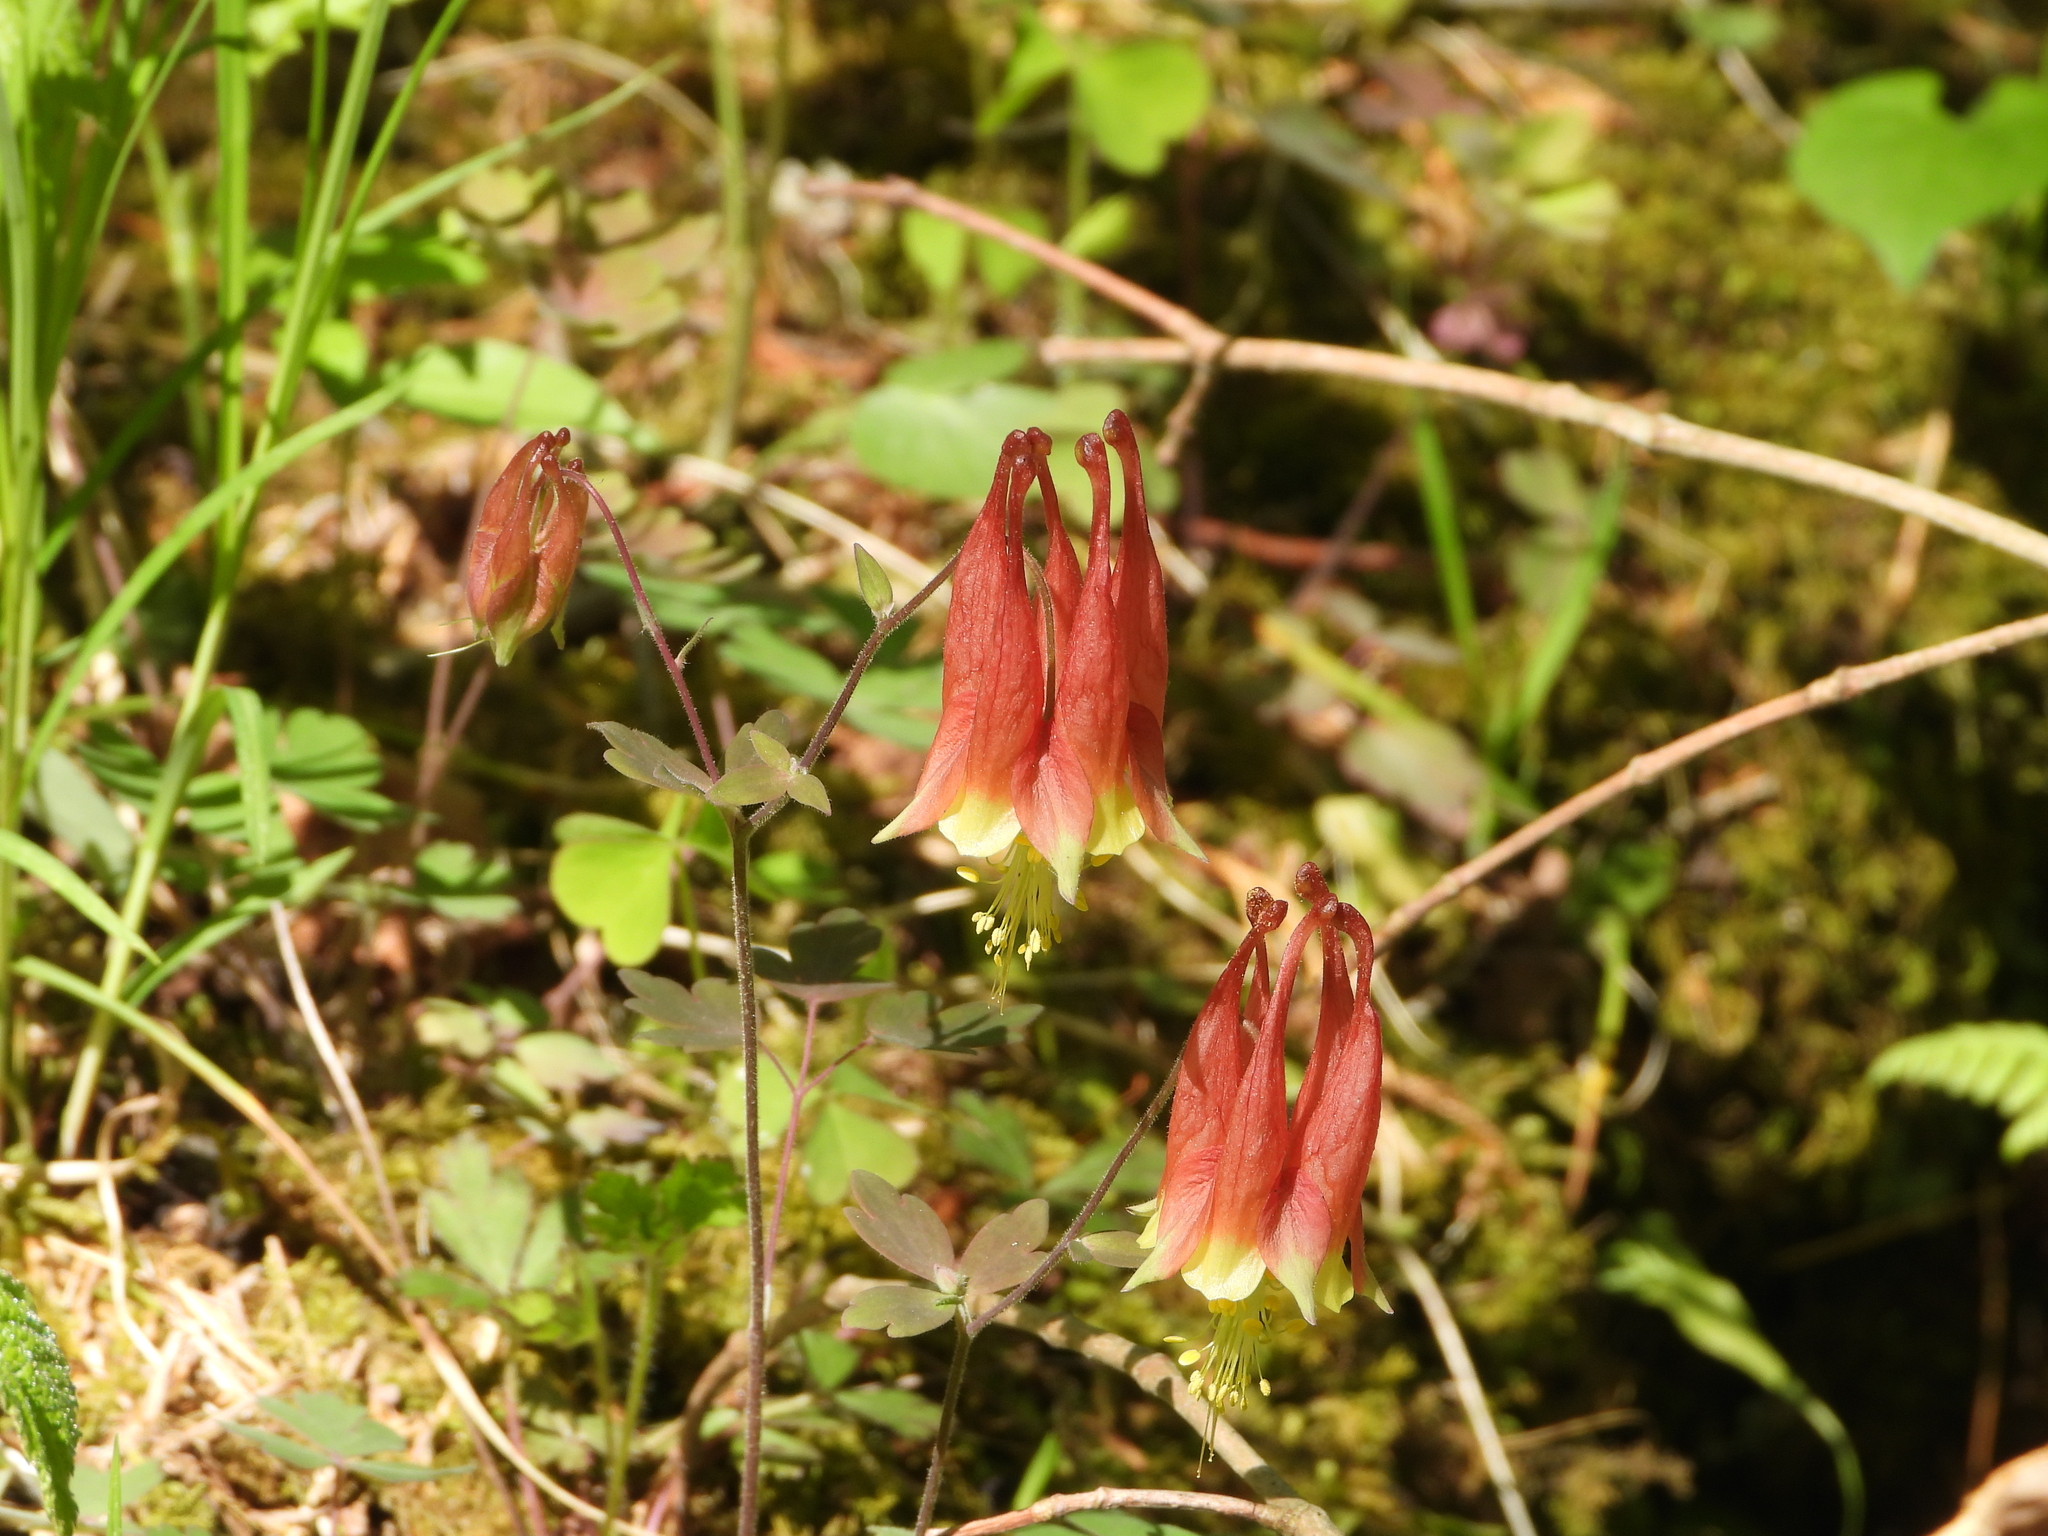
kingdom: Plantae
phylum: Tracheophyta
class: Magnoliopsida
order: Ranunculales
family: Ranunculaceae
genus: Aquilegia
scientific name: Aquilegia canadensis
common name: American columbine
